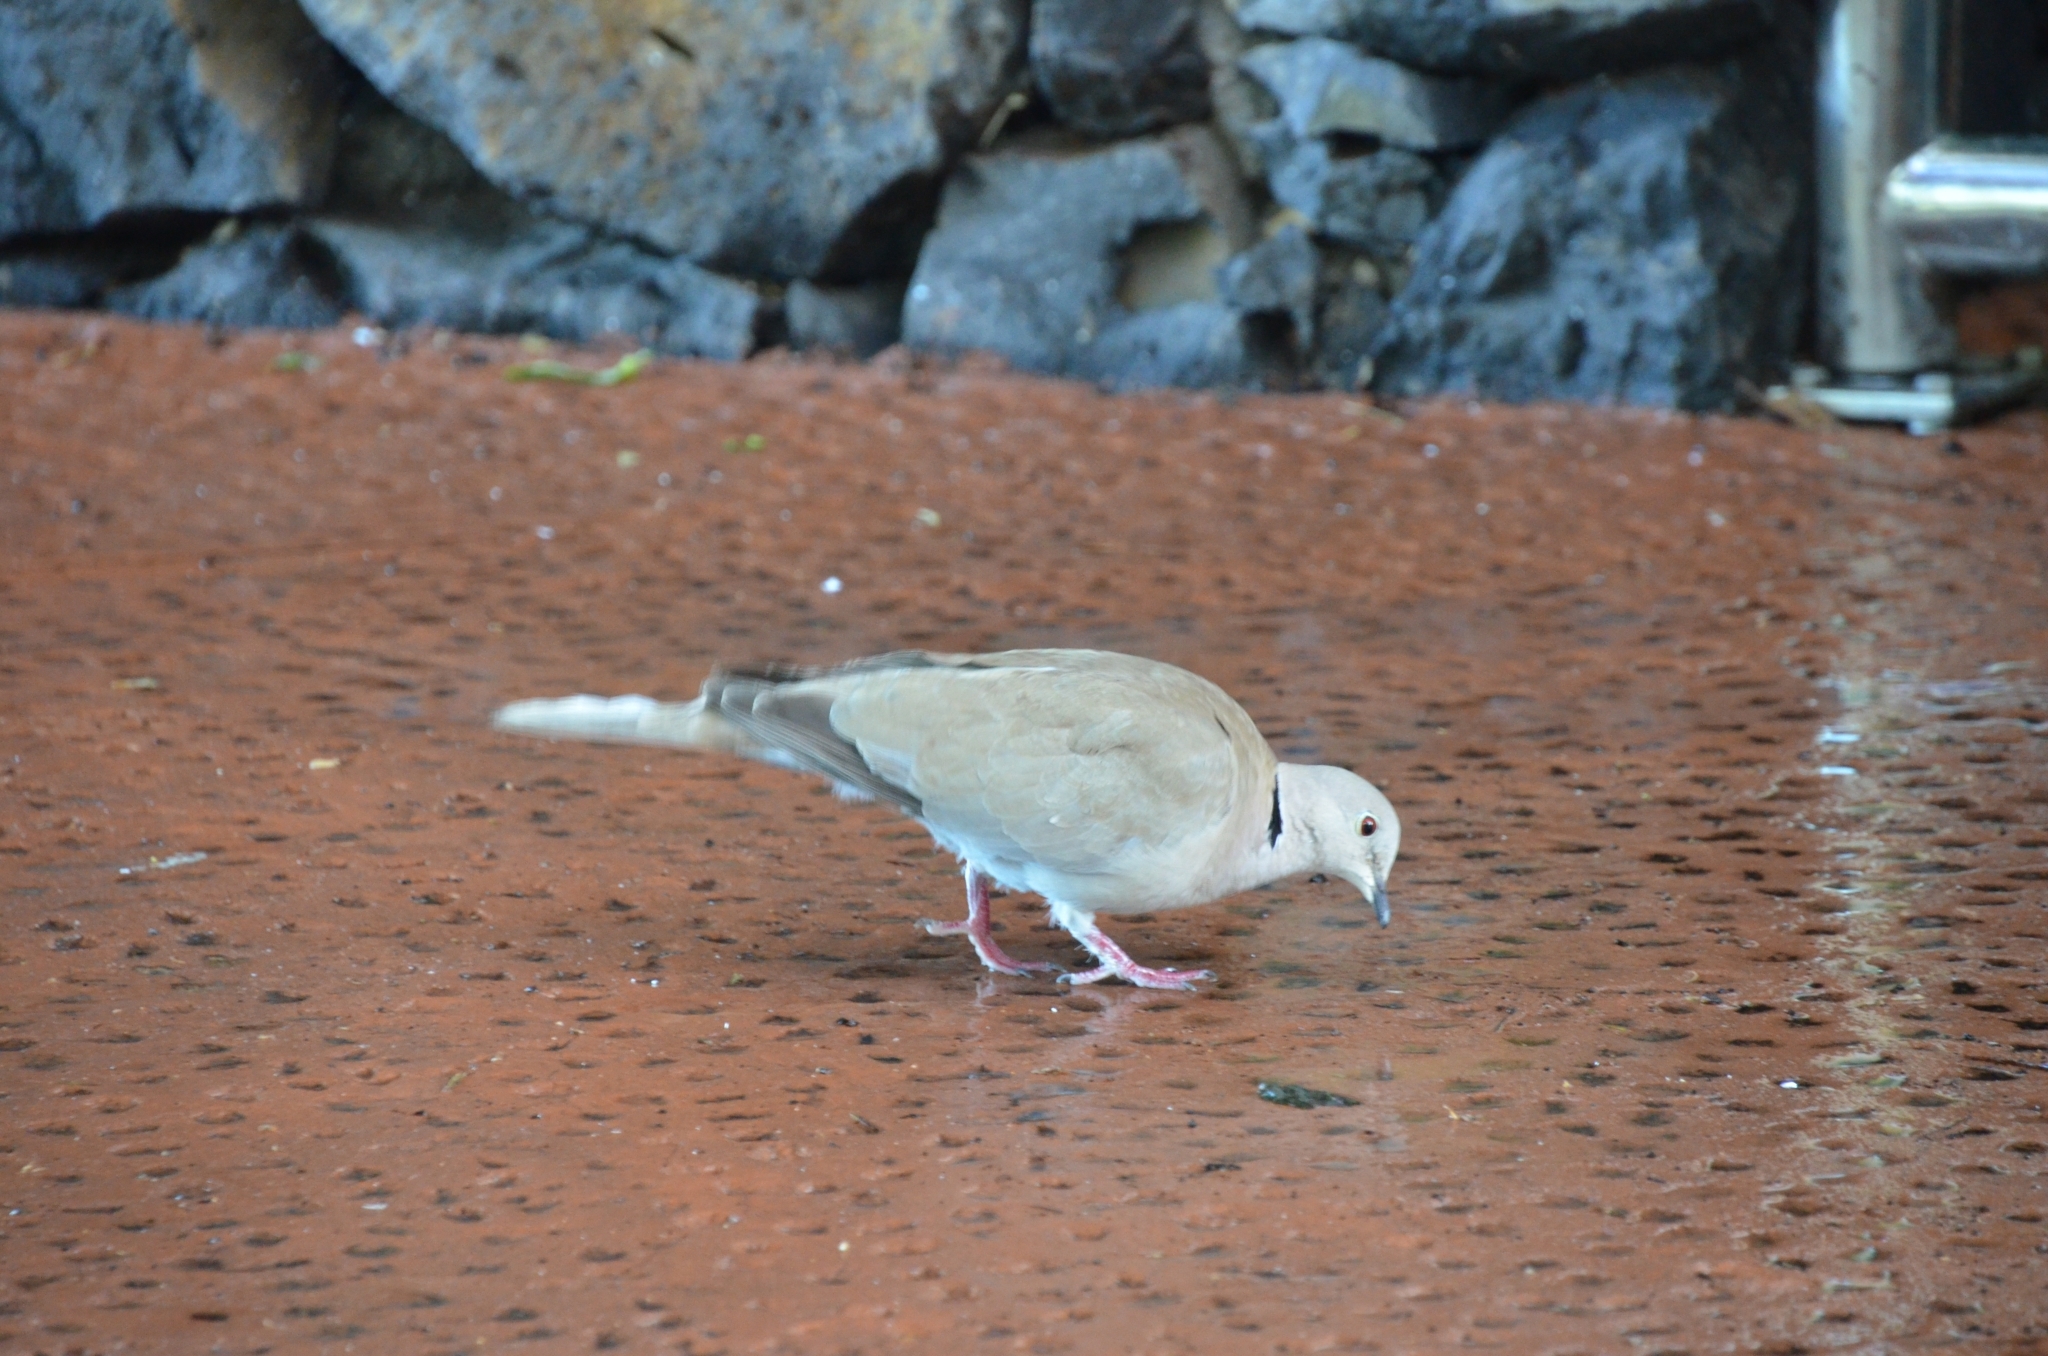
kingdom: Animalia
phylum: Chordata
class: Aves
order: Columbiformes
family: Columbidae
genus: Streptopelia
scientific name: Streptopelia decaocto
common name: Eurasian collared dove
